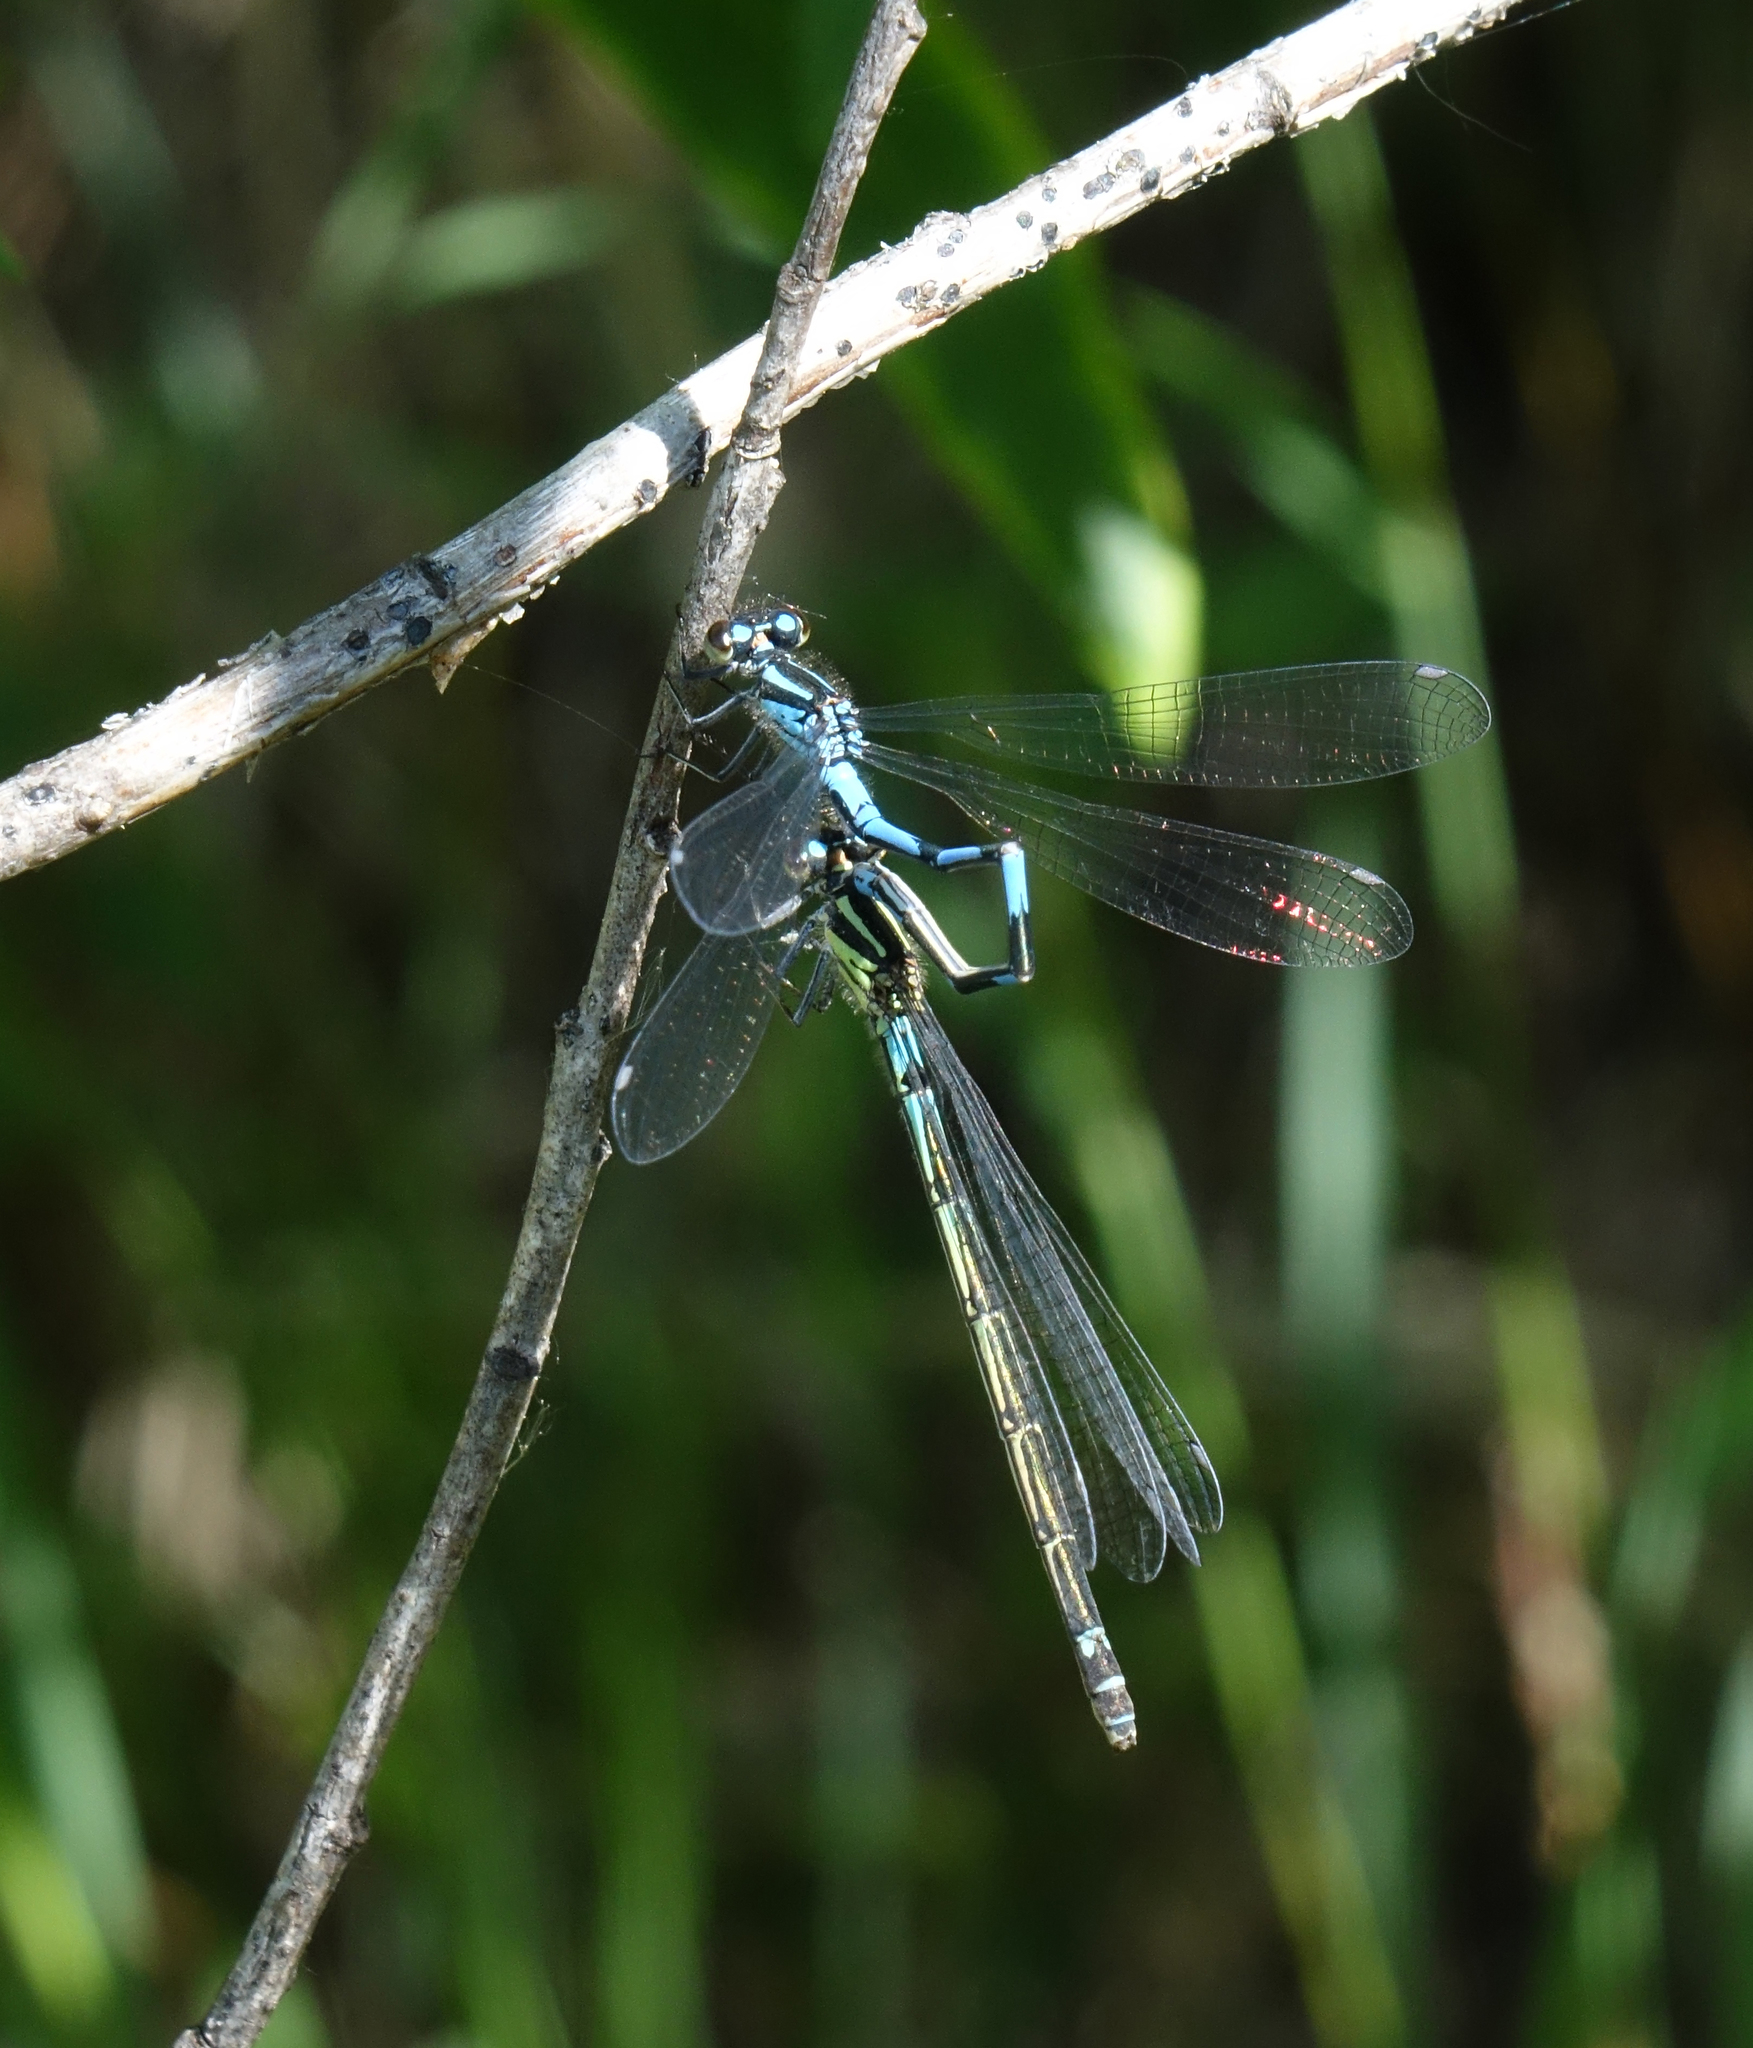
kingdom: Animalia
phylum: Arthropoda
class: Insecta
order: Odonata
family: Coenagrionidae
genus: Coenagrion
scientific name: Coenagrion hylas
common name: Frey's damselfly
